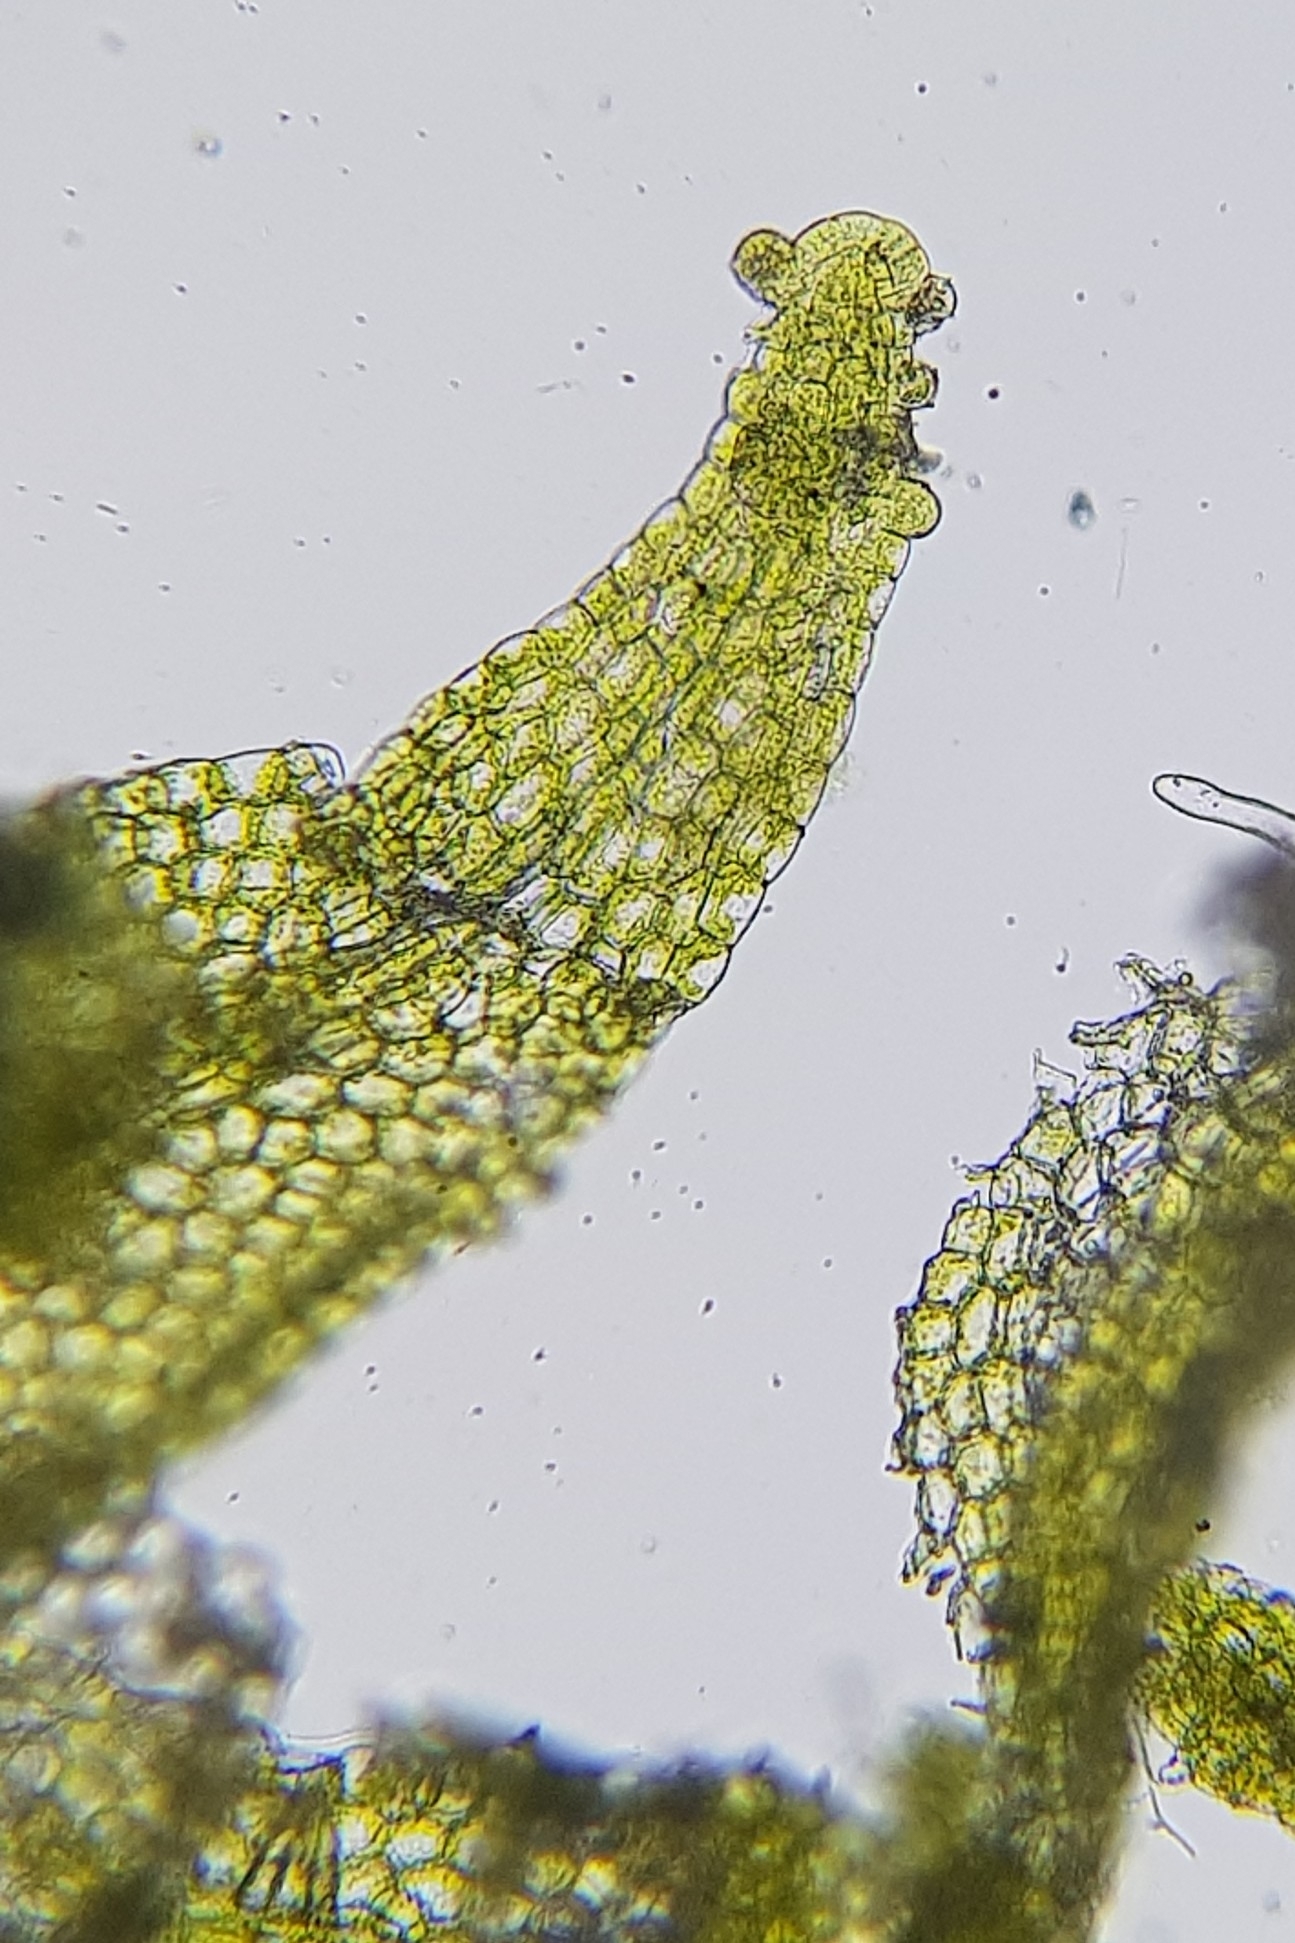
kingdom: Plantae
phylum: Marchantiophyta
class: Jungermanniopsida
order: Metzgeriales
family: Metzgeriaceae
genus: Metzgeria
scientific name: Metzgeria violacea
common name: Blueish veilwort
